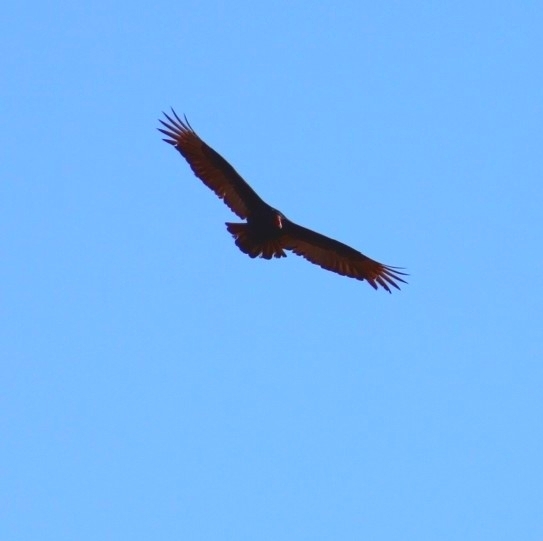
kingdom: Animalia
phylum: Chordata
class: Aves
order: Accipitriformes
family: Cathartidae
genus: Cathartes
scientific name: Cathartes aura
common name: Turkey vulture
